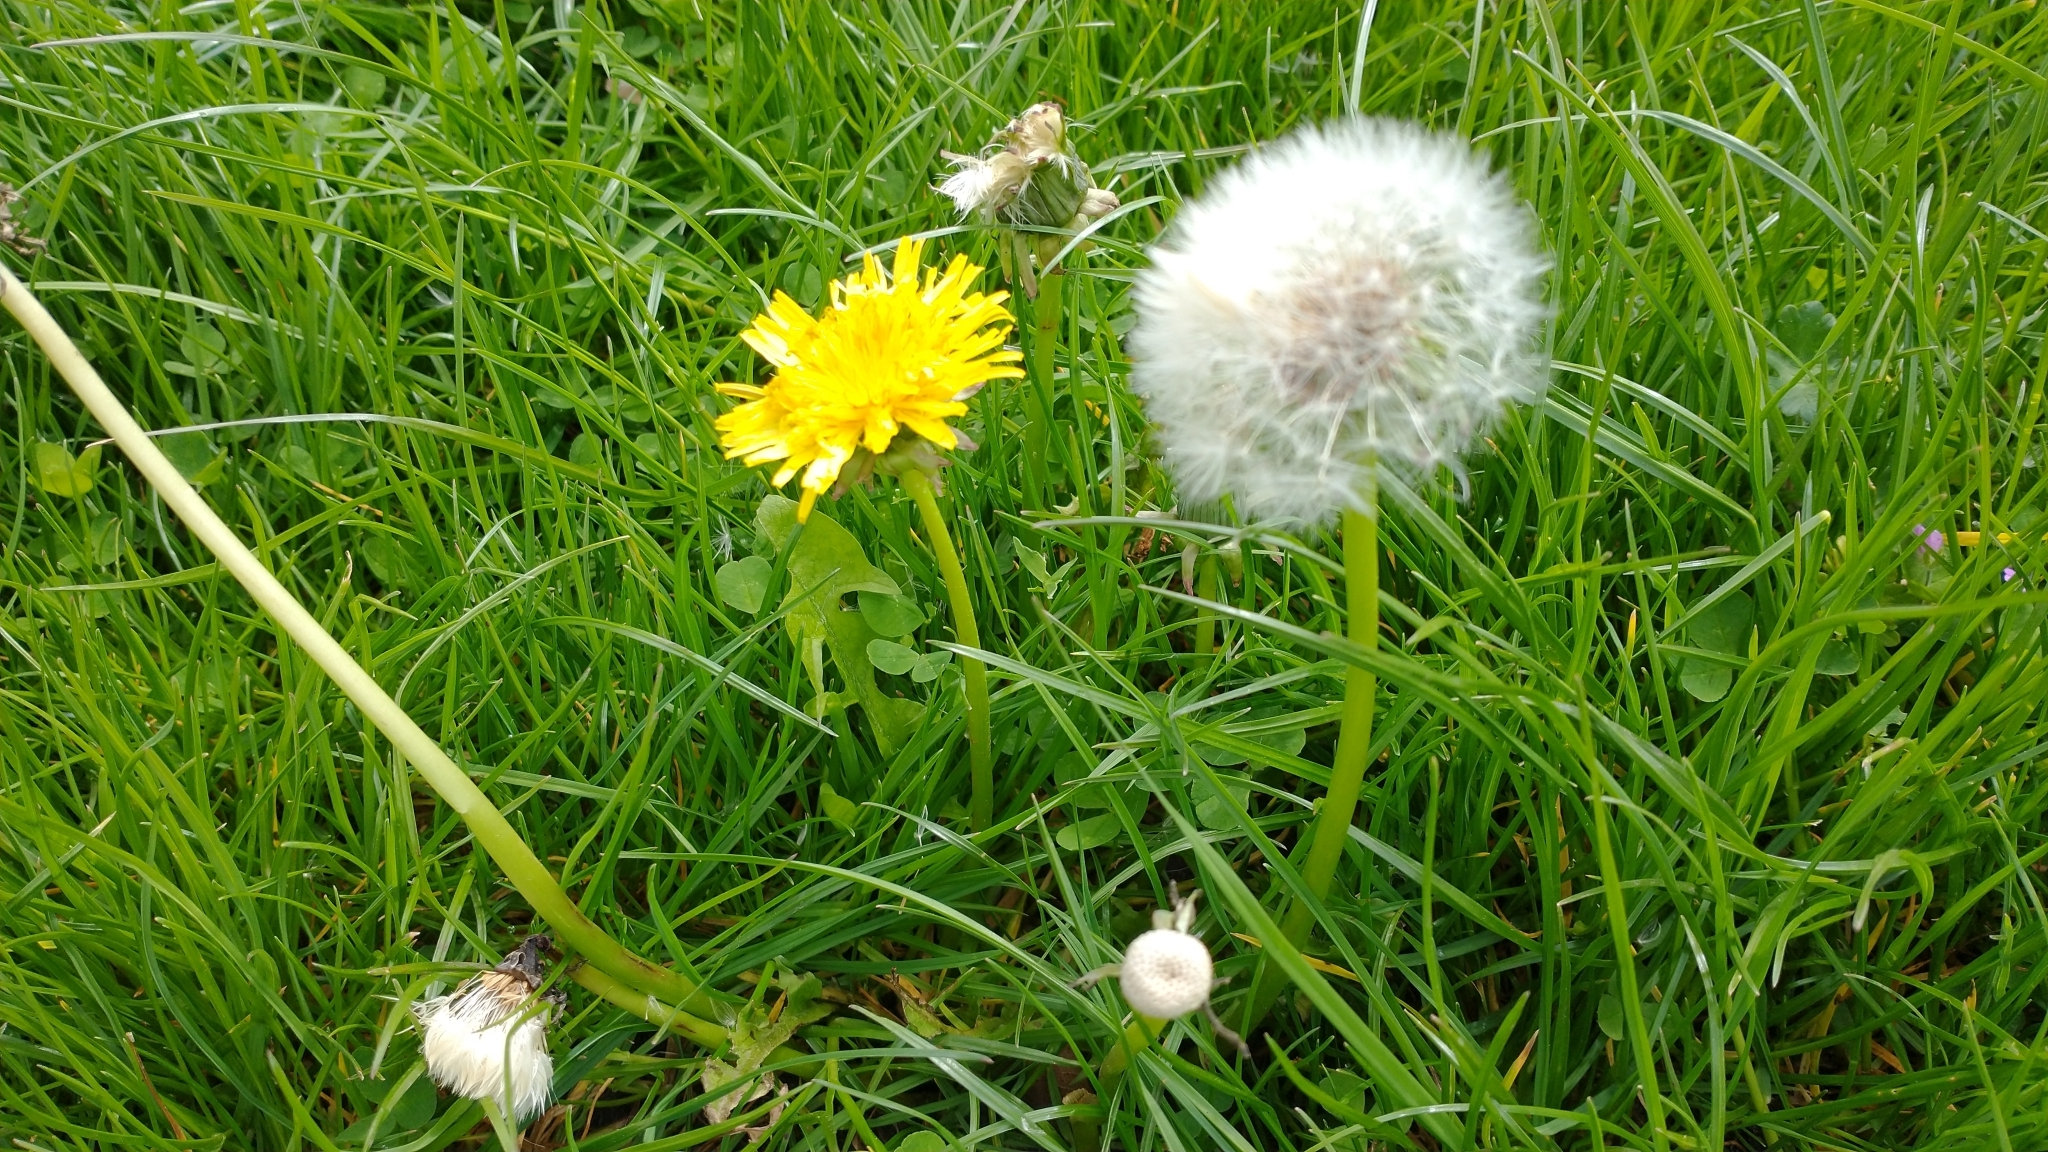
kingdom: Plantae
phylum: Tracheophyta
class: Magnoliopsida
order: Asterales
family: Asteraceae
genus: Taraxacum
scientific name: Taraxacum officinale
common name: Common dandelion
